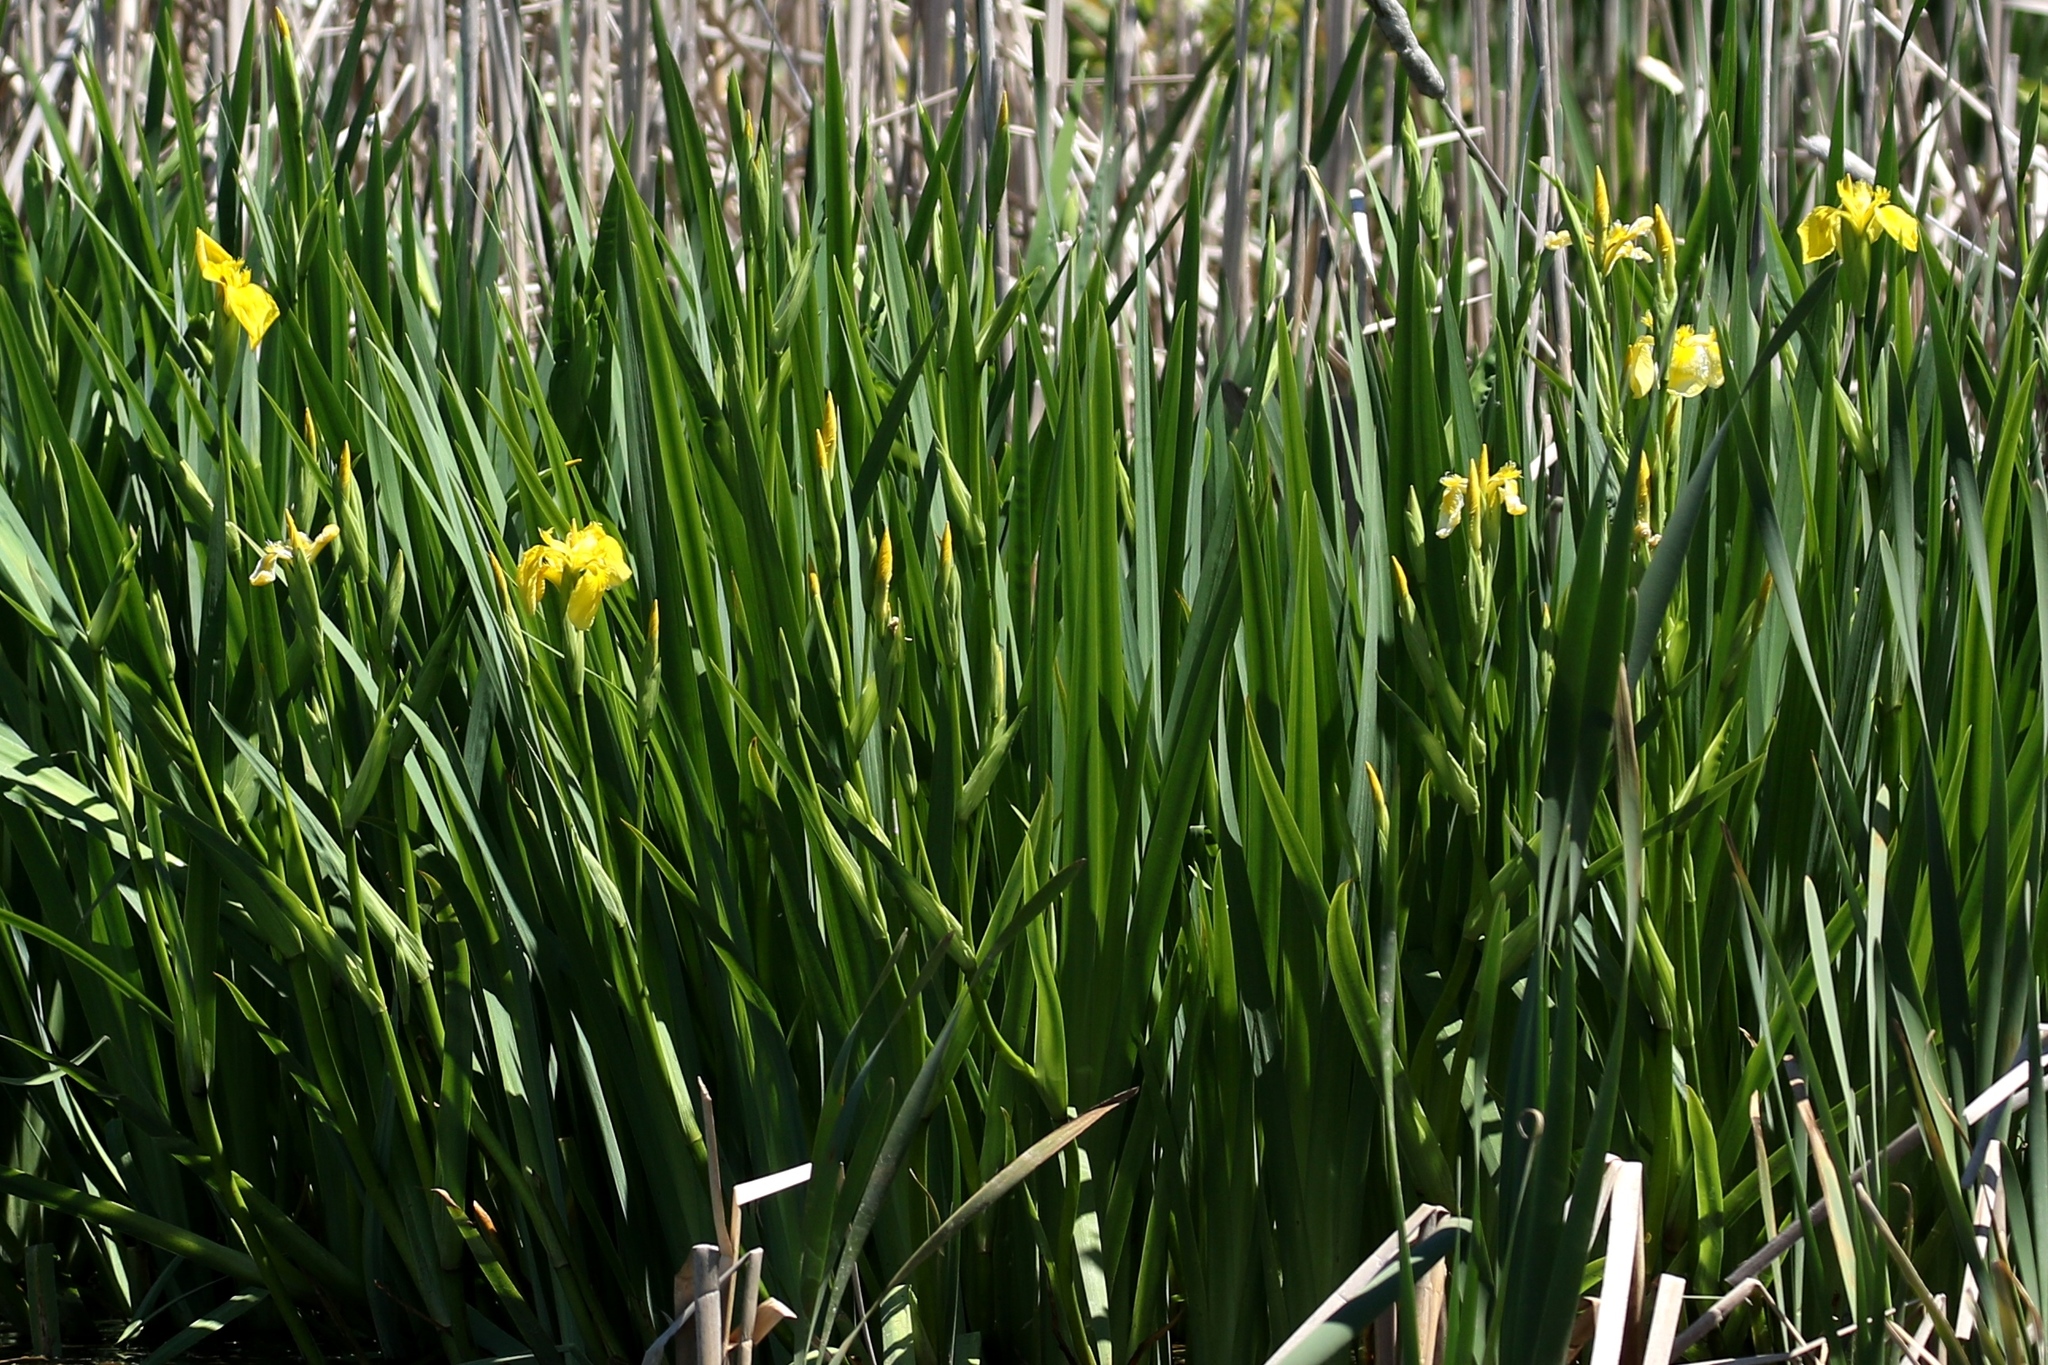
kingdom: Plantae
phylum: Tracheophyta
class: Liliopsida
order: Asparagales
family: Iridaceae
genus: Iris
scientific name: Iris pseudacorus
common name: Yellow flag
